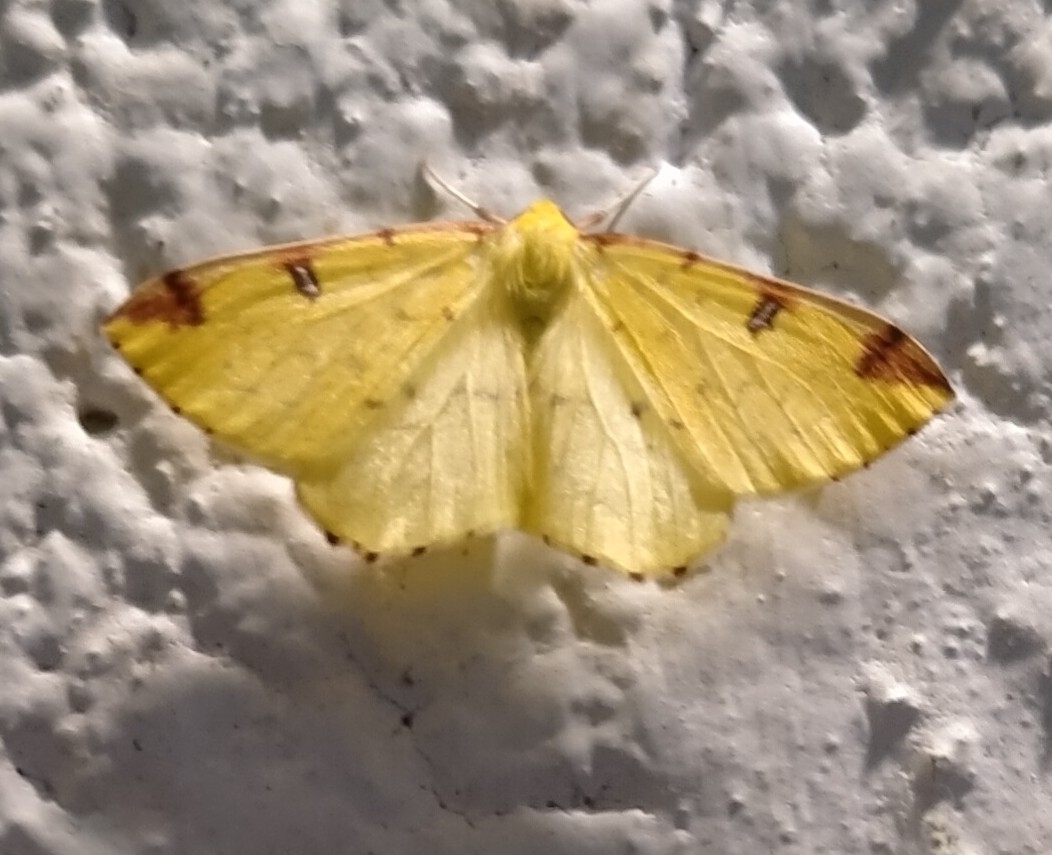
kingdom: Animalia
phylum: Arthropoda
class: Insecta
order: Lepidoptera
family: Geometridae
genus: Opisthograptis
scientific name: Opisthograptis luteolata
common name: Brimstone moth
